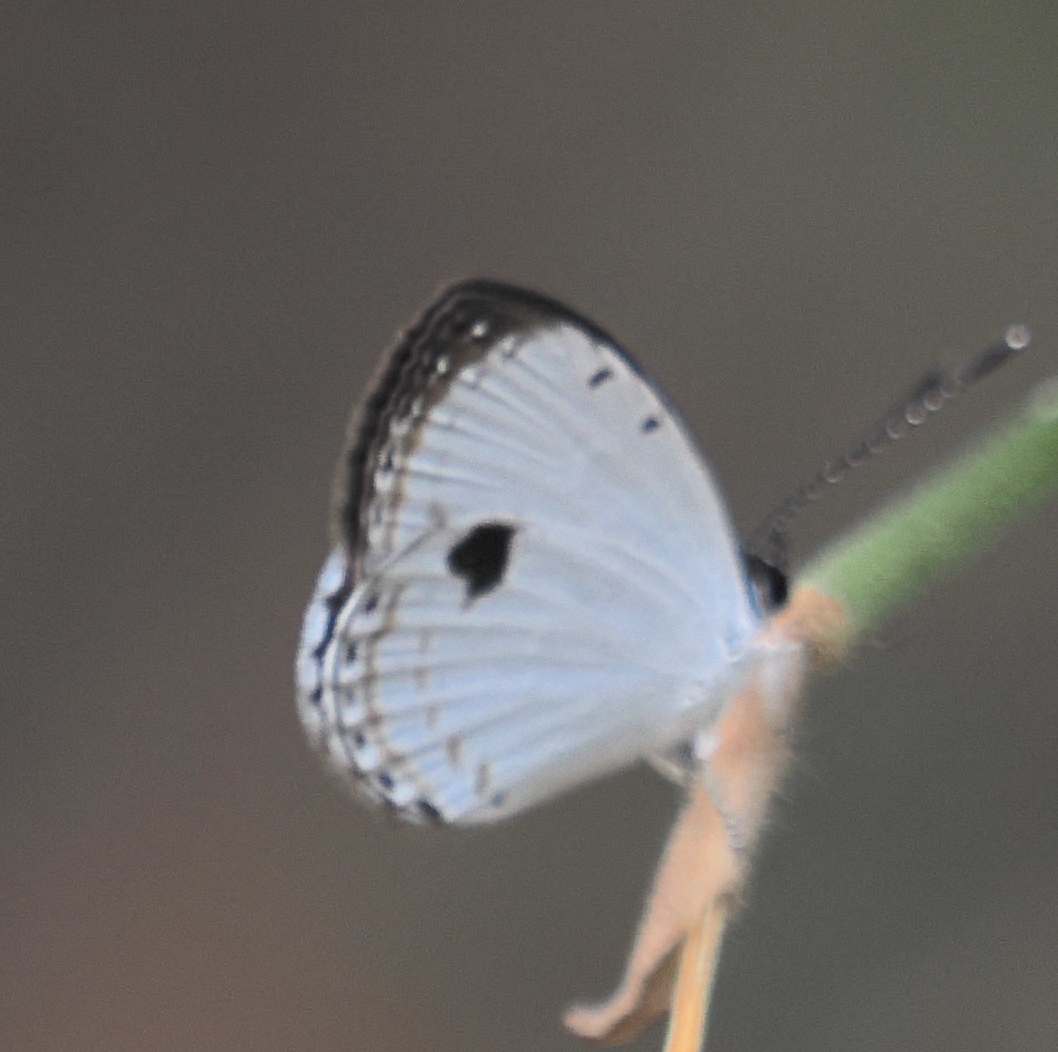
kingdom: Animalia
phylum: Arthropoda
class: Insecta
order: Lepidoptera
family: Lycaenidae
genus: Pithecops
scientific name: Pithecops corvus
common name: Forest quaker
